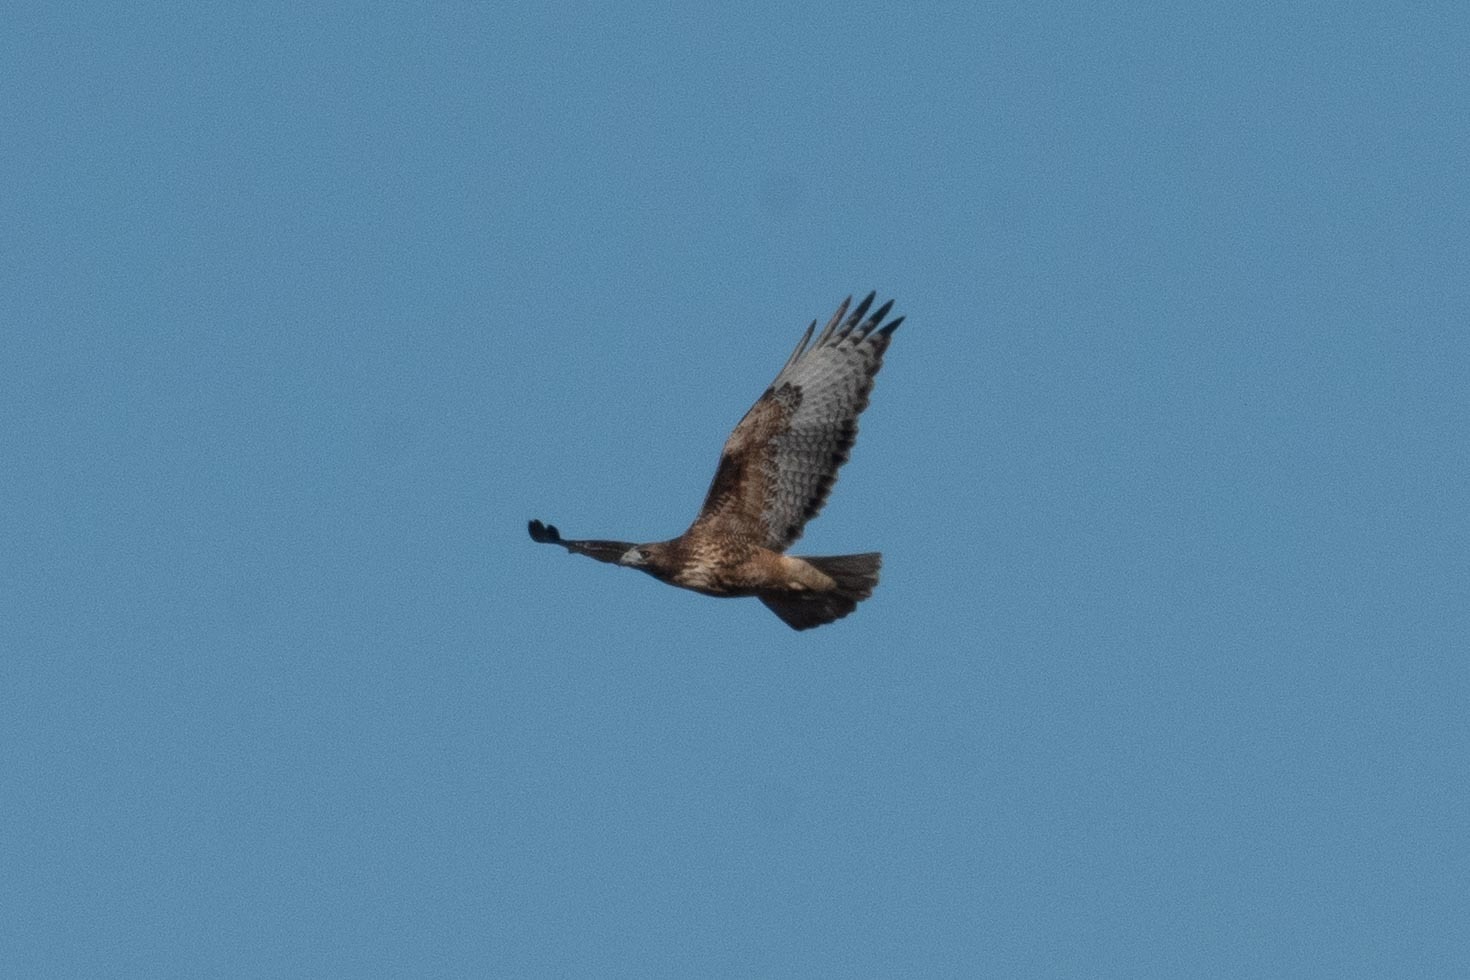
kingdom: Animalia
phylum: Chordata
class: Aves
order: Accipitriformes
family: Accipitridae
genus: Buteo
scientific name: Buteo jamaicensis
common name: Red-tailed hawk
